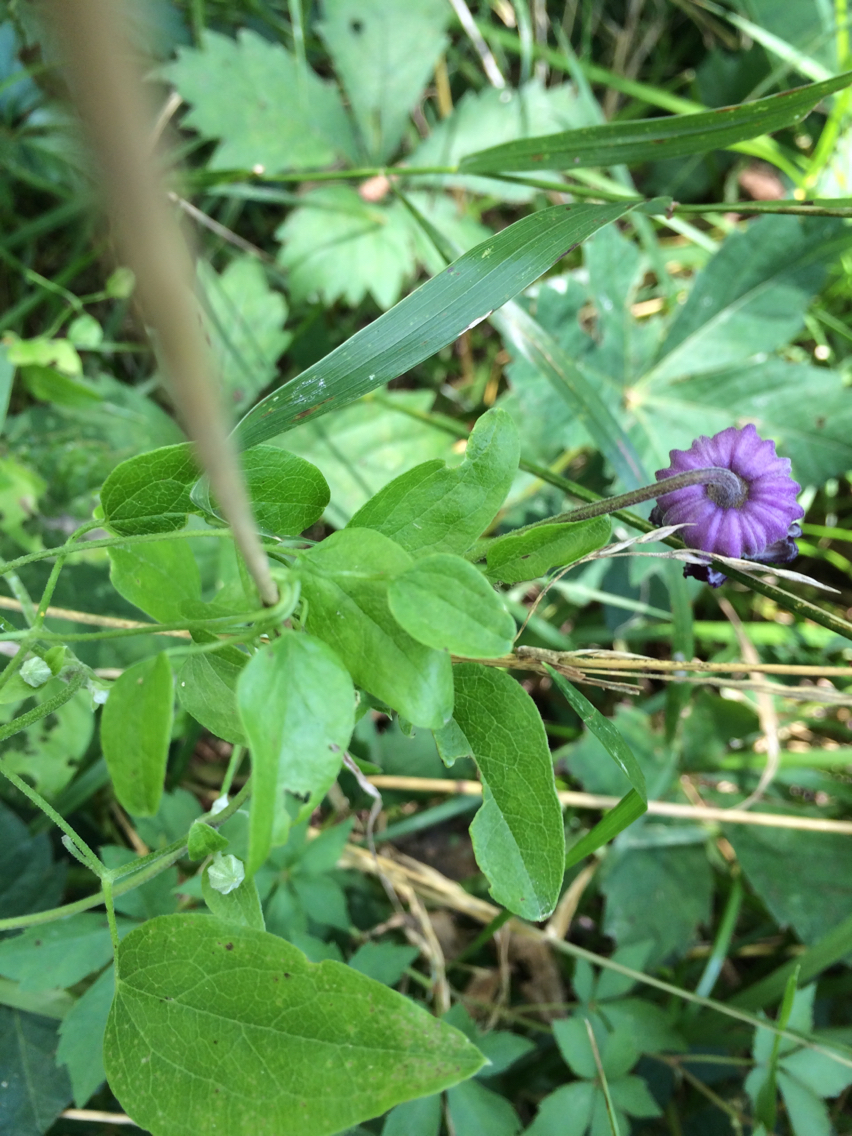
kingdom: Plantae
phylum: Tracheophyta
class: Magnoliopsida
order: Ranunculales
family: Ranunculaceae
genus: Clematis
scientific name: Clematis pitcheri
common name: Bellflower clematis
